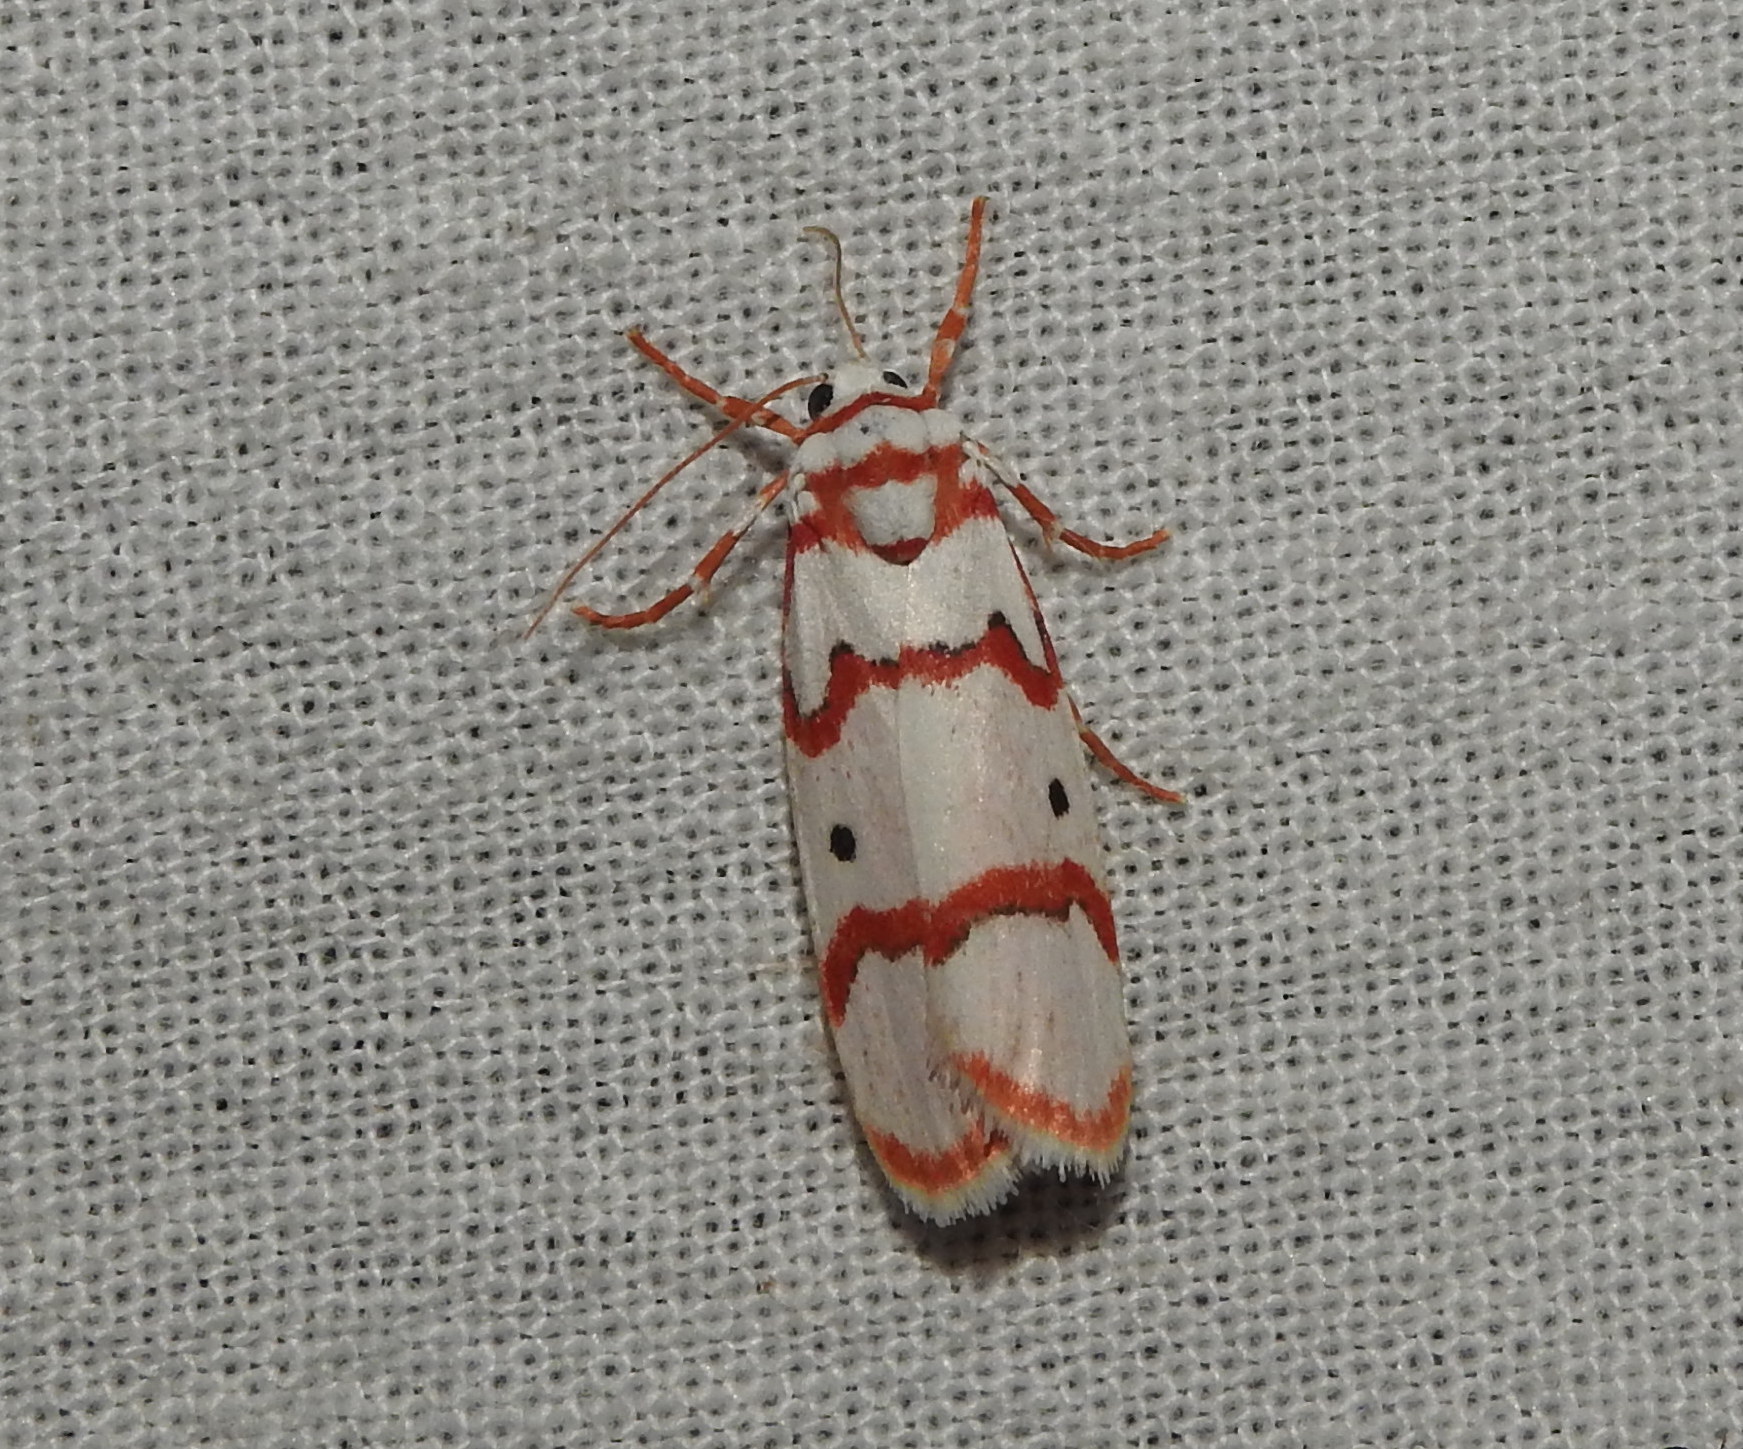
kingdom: Animalia
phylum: Arthropoda
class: Insecta
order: Lepidoptera
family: Erebidae
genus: Cyana
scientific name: Cyana puella
